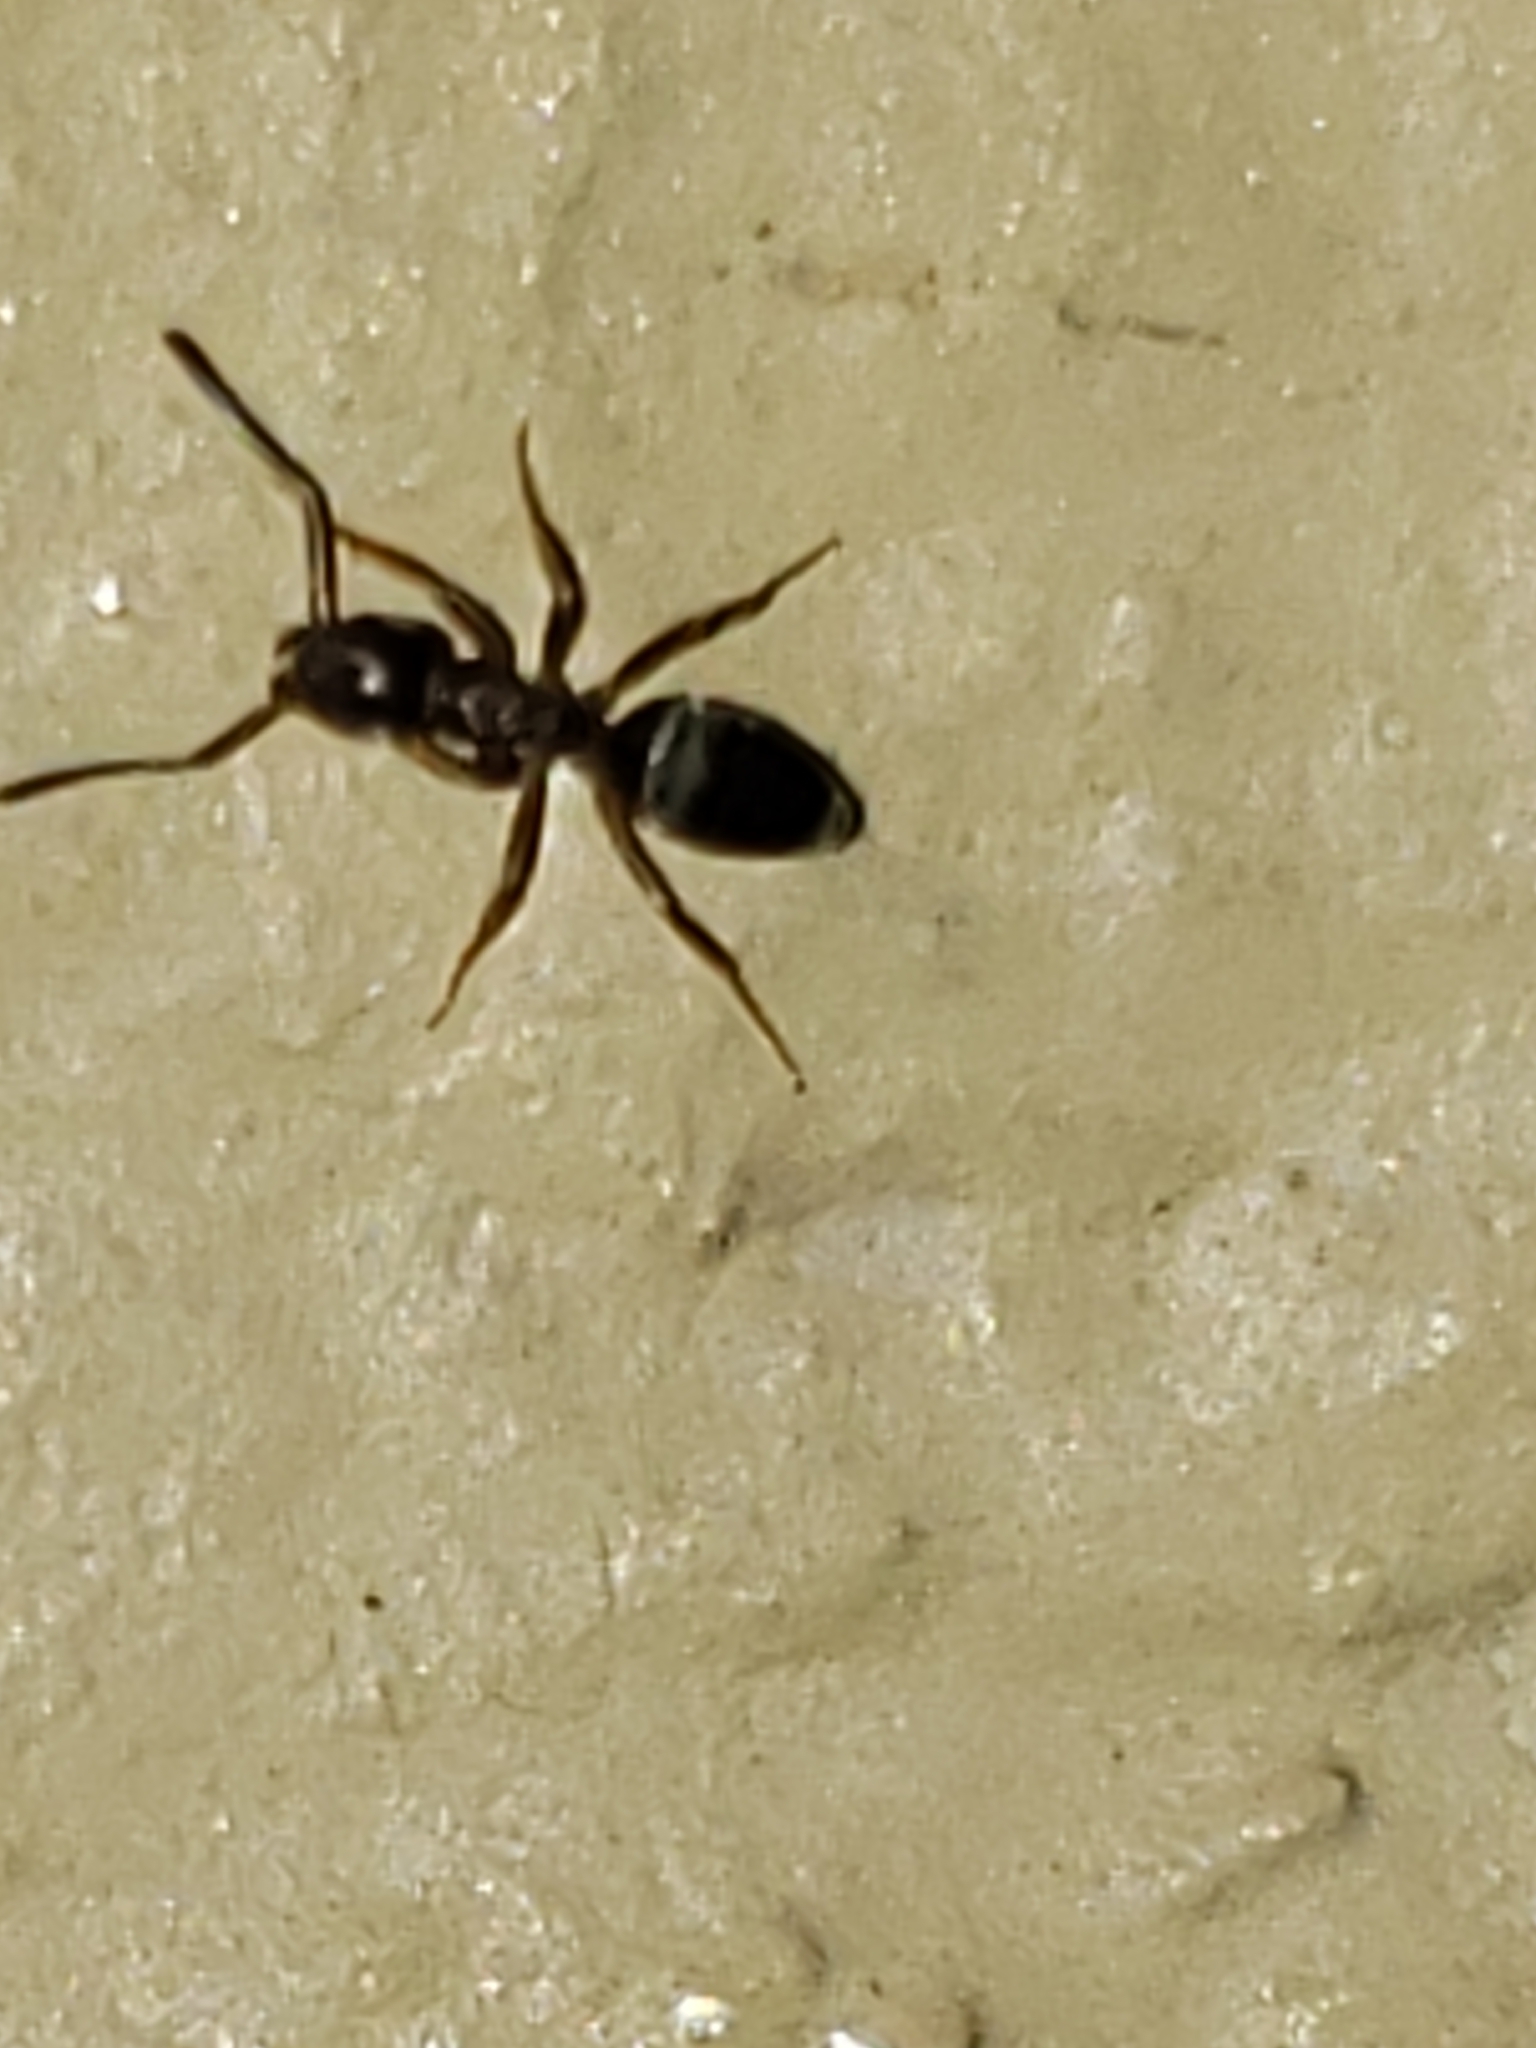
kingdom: Animalia
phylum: Arthropoda
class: Insecta
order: Hymenoptera
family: Formicidae
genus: Tapinoma
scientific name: Tapinoma sessile
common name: Odorous house ant
